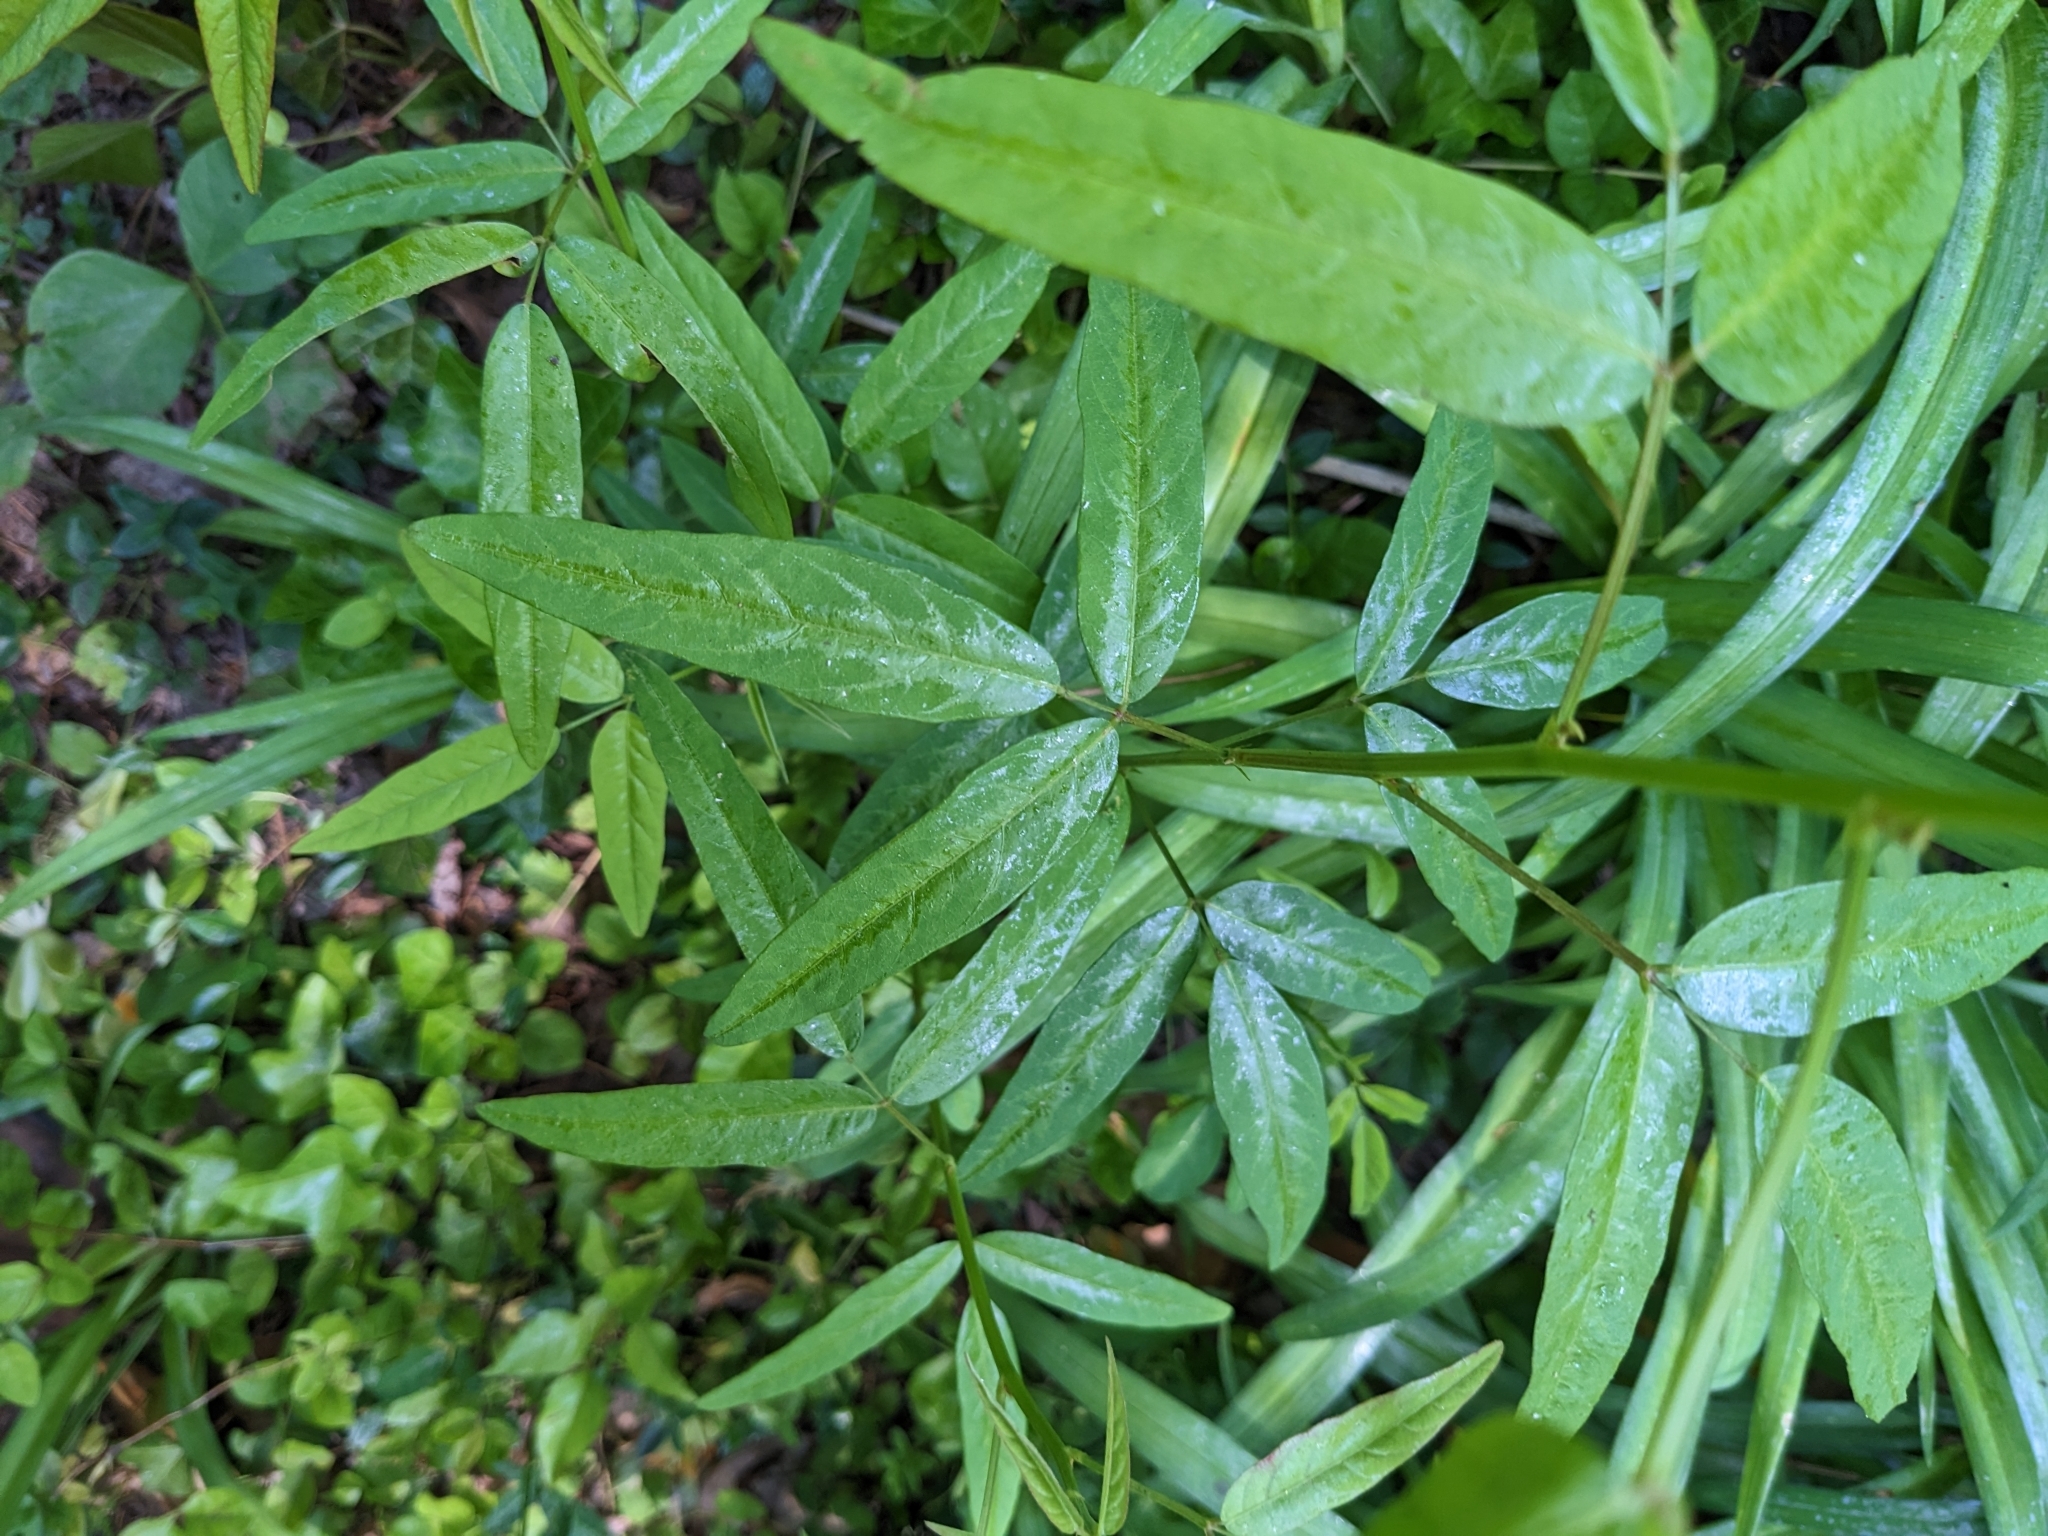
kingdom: Plantae
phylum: Tracheophyta
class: Magnoliopsida
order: Fabales
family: Fabaceae
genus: Desmodium
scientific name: Desmodium paniculatum
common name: Panicled tick-clover
